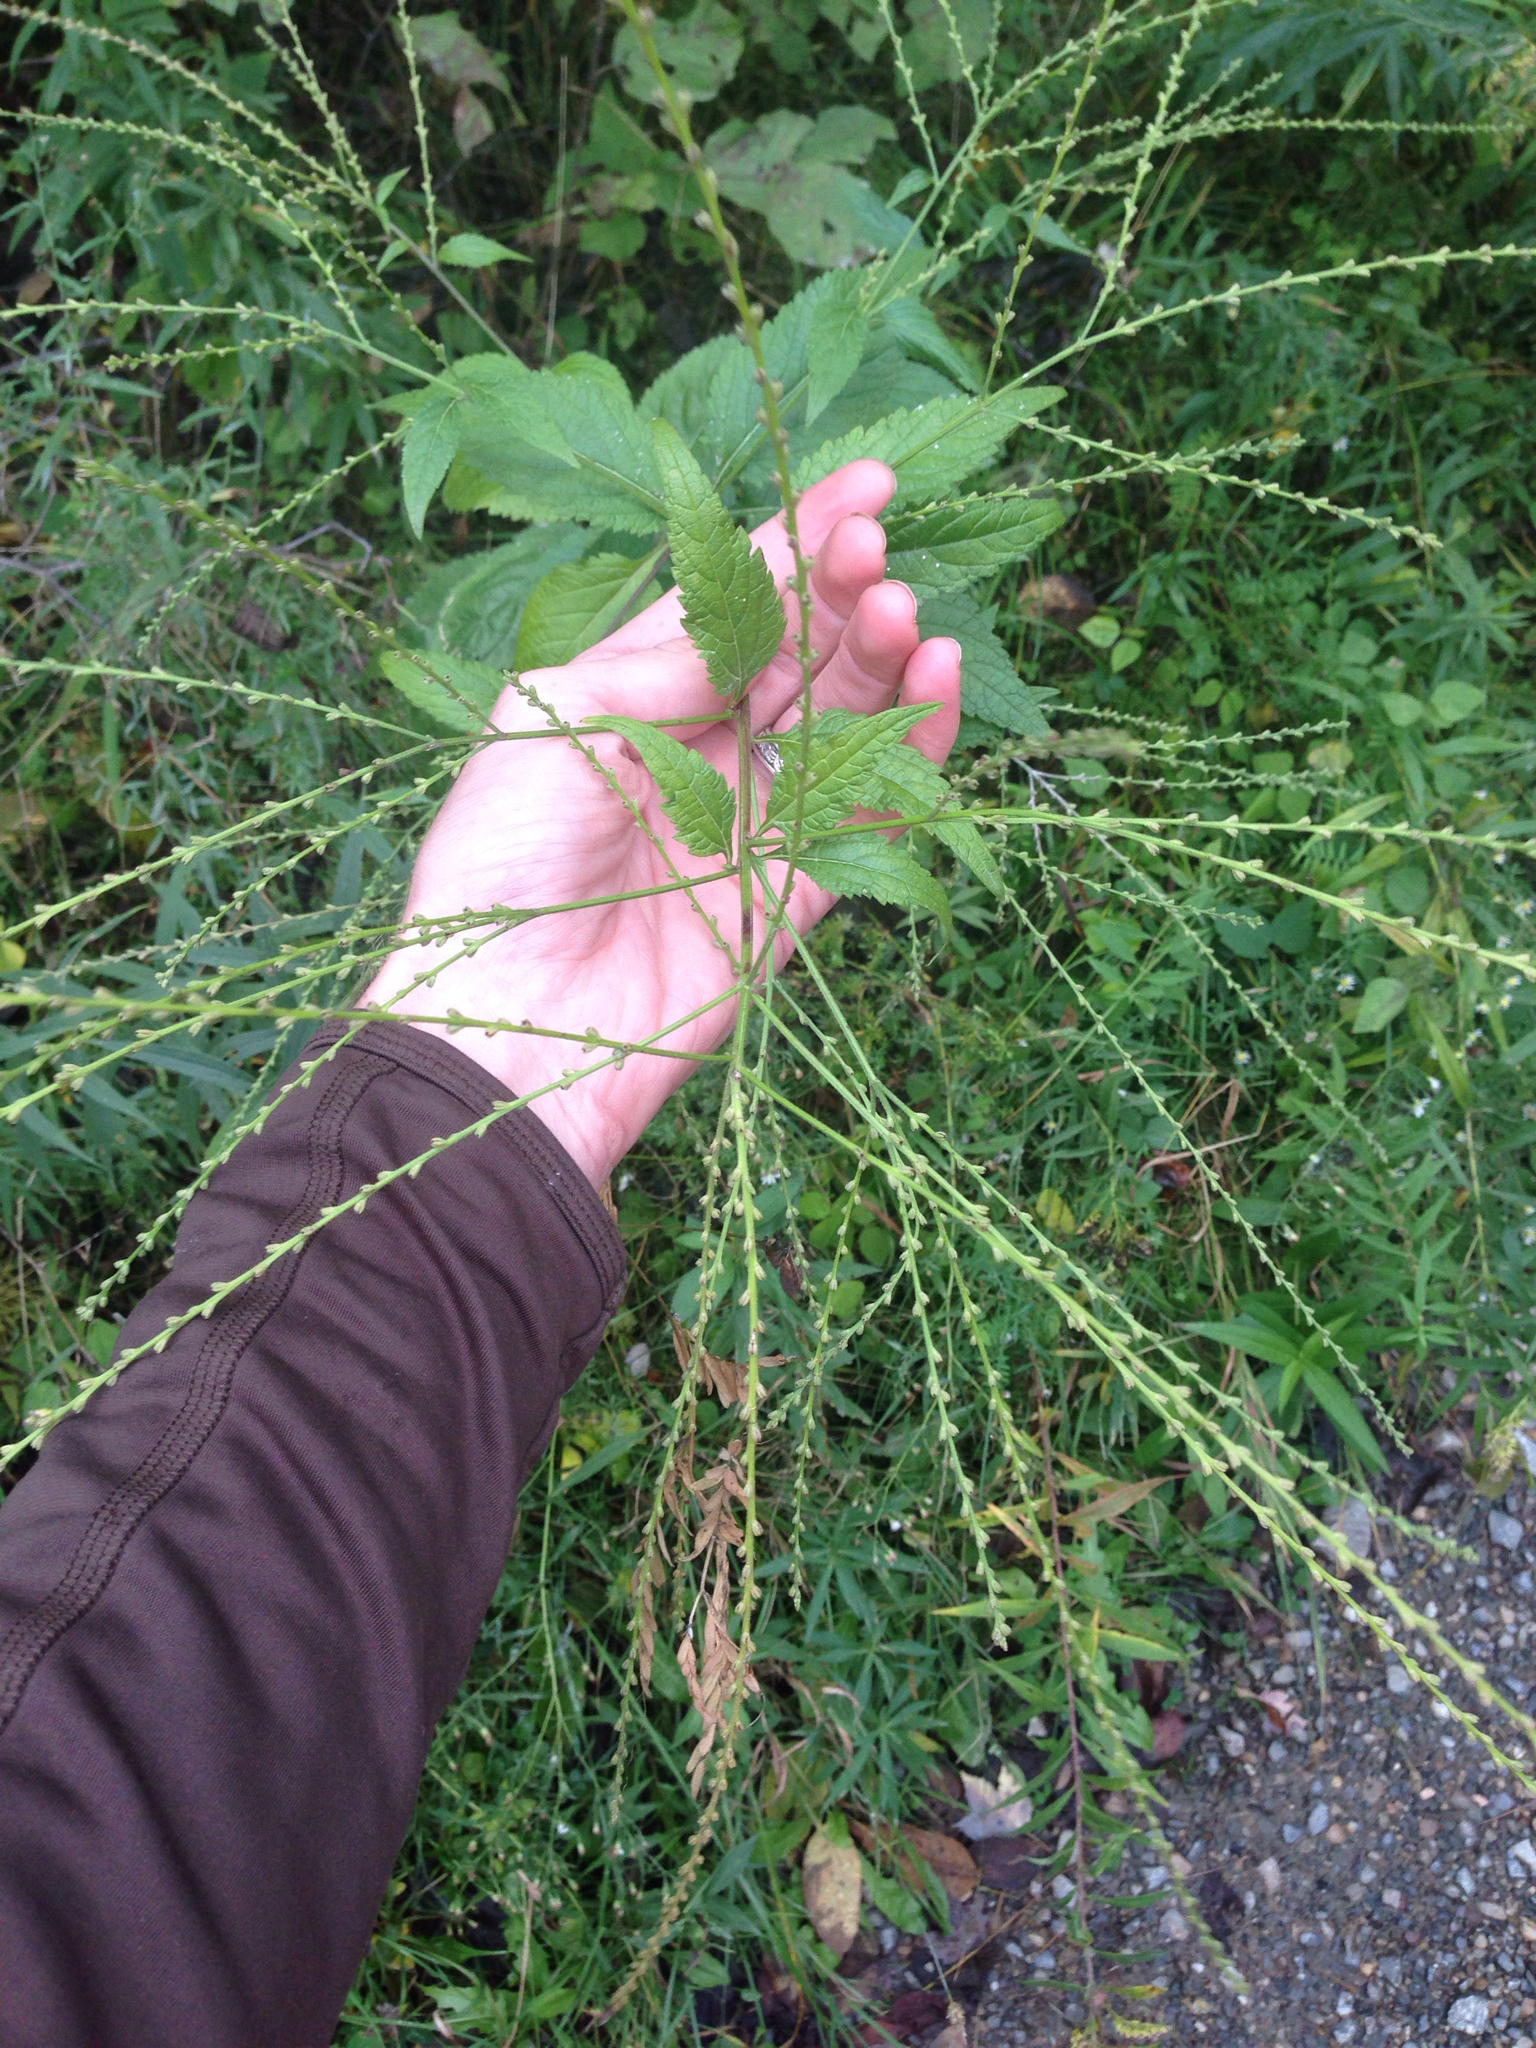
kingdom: Plantae
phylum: Tracheophyta
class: Magnoliopsida
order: Lamiales
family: Verbenaceae
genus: Verbena
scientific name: Verbena urticifolia
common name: Nettle-leaved vervain
